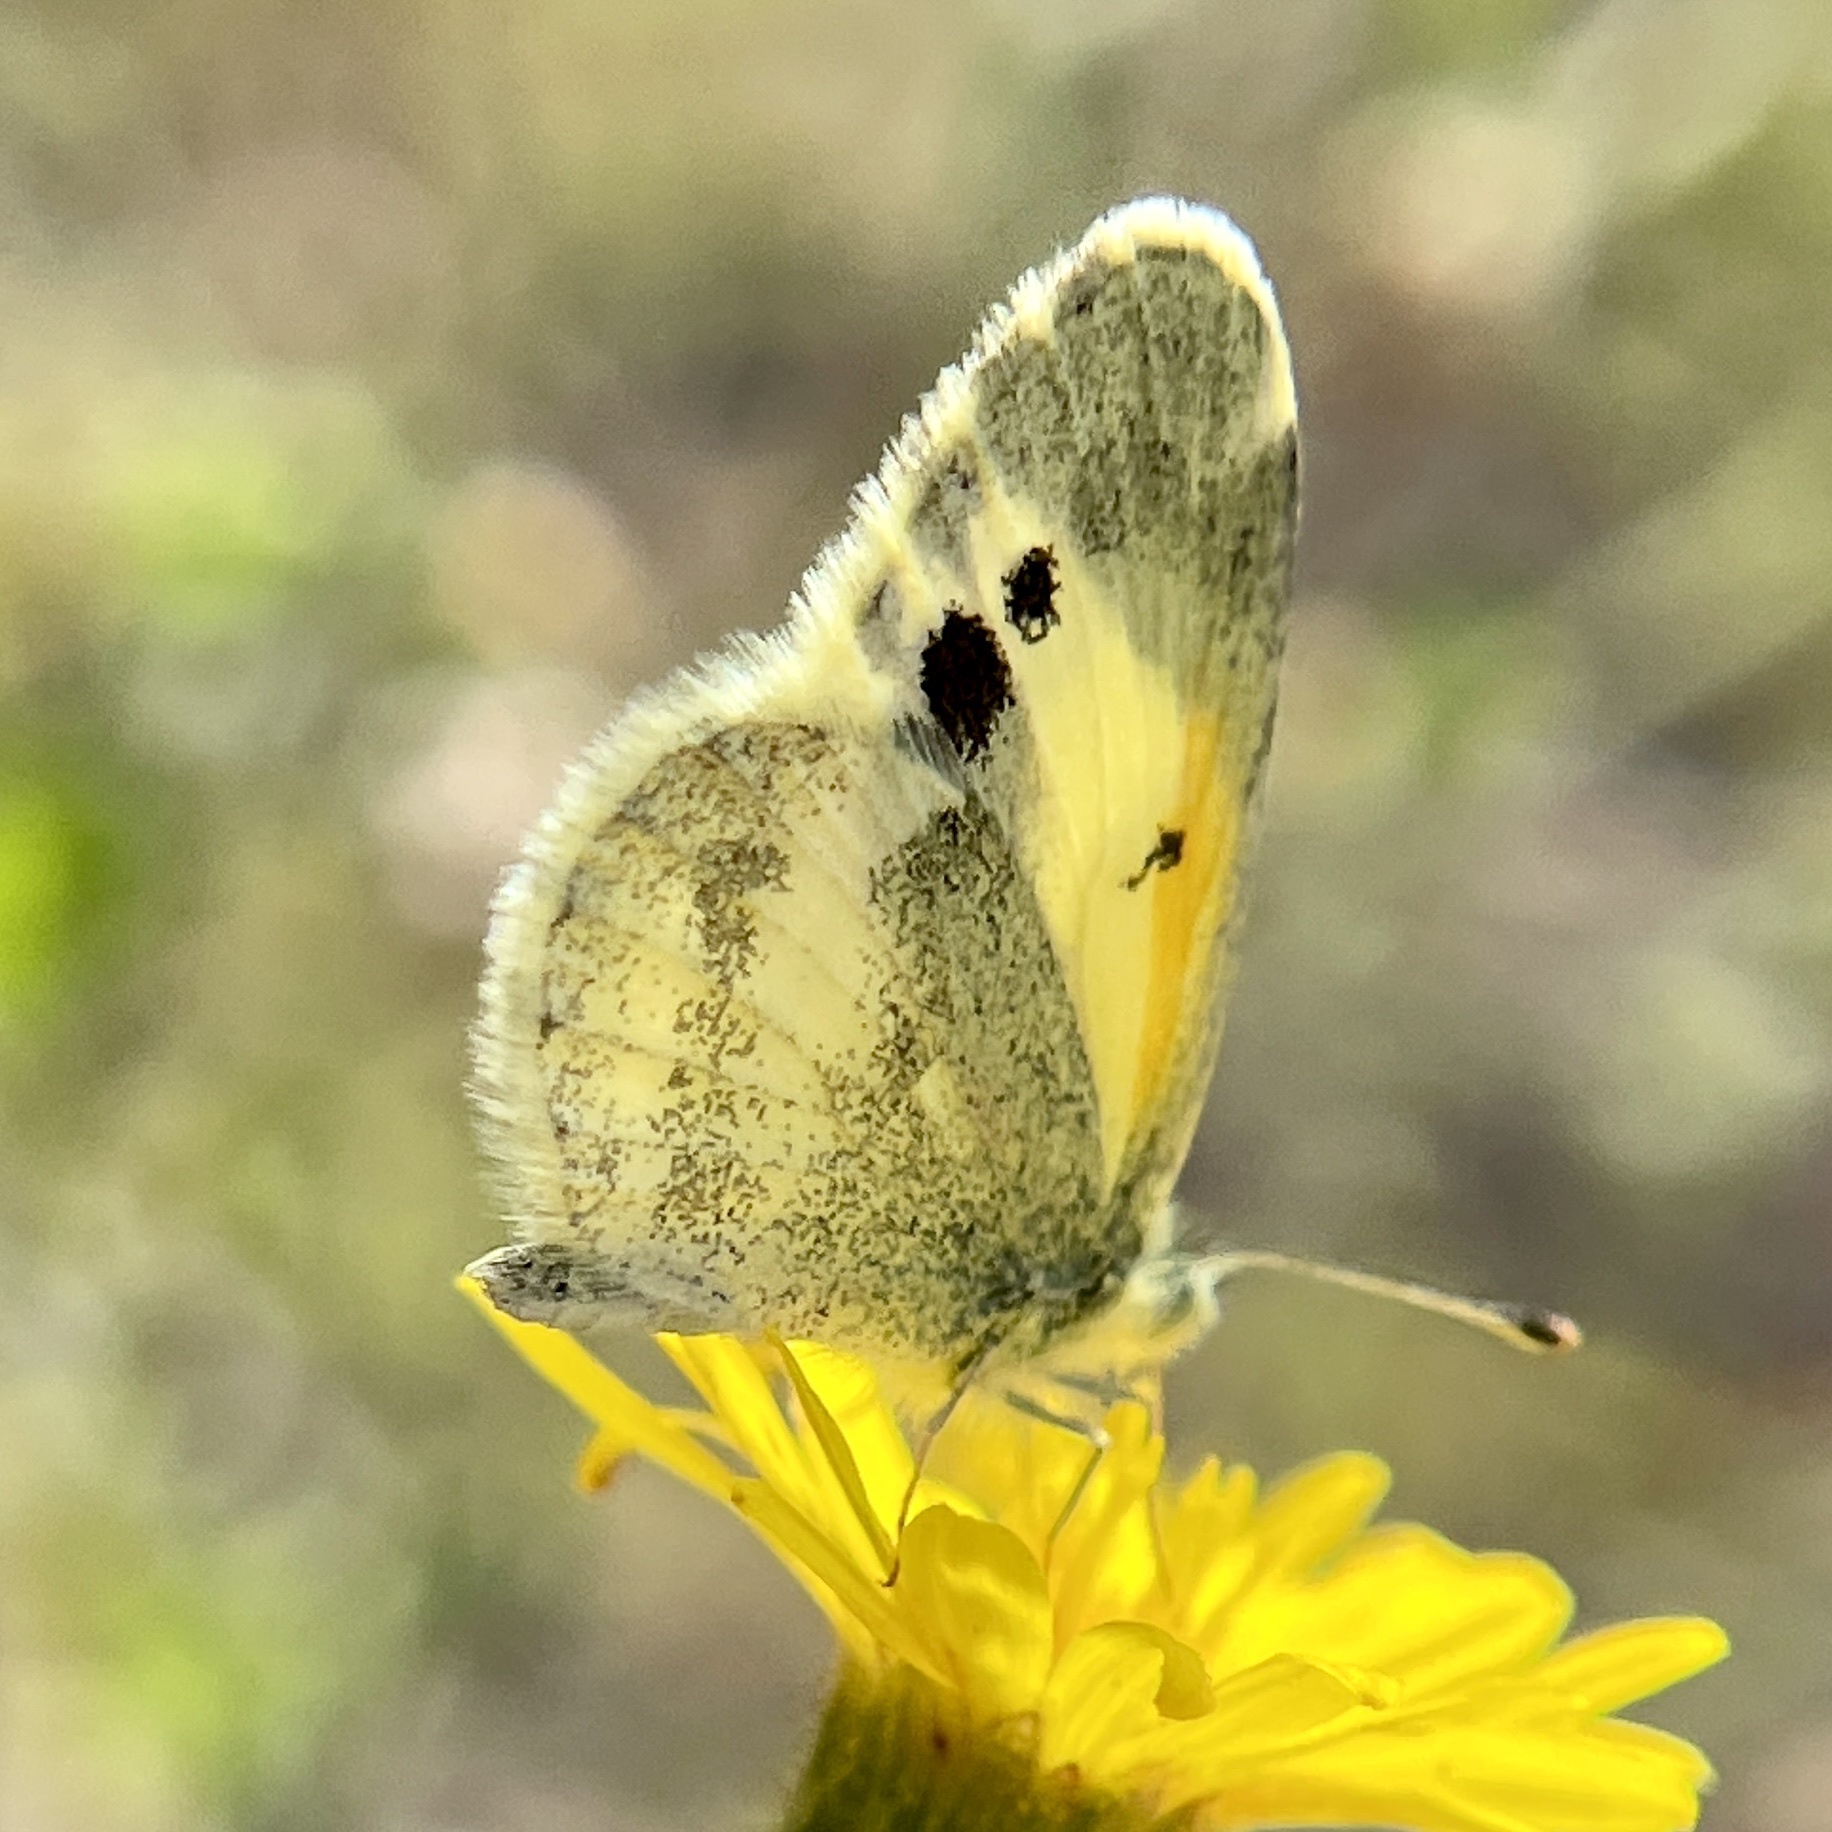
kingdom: Animalia
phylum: Arthropoda
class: Insecta
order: Lepidoptera
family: Pieridae
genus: Nathalis
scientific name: Nathalis iole
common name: Dainty sulphur
